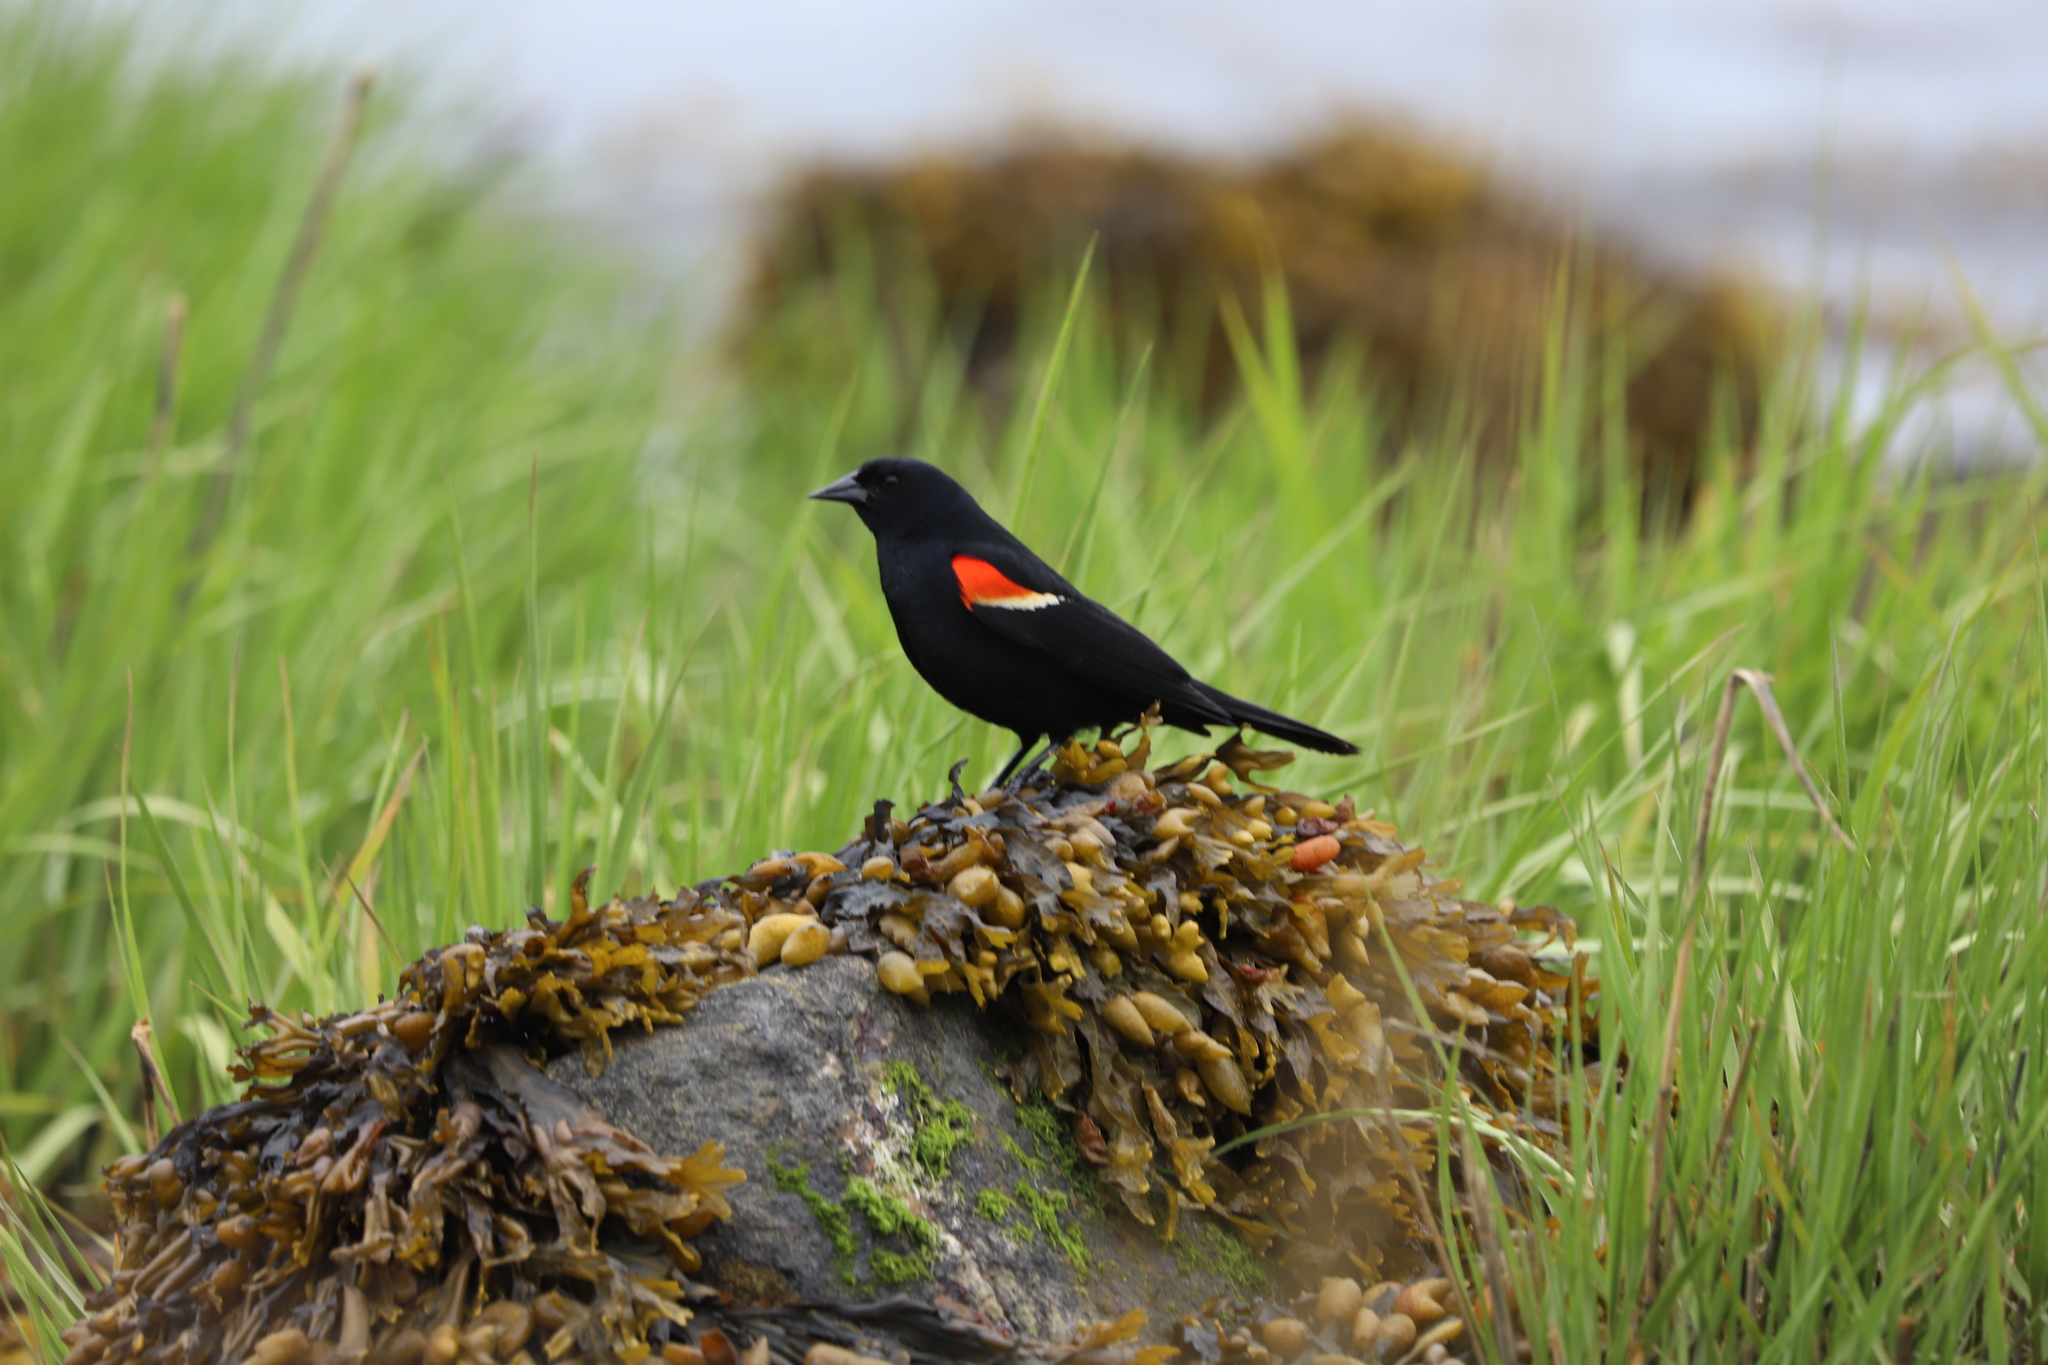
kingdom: Animalia
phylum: Chordata
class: Aves
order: Passeriformes
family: Icteridae
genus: Agelaius
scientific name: Agelaius phoeniceus
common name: Red-winged blackbird
